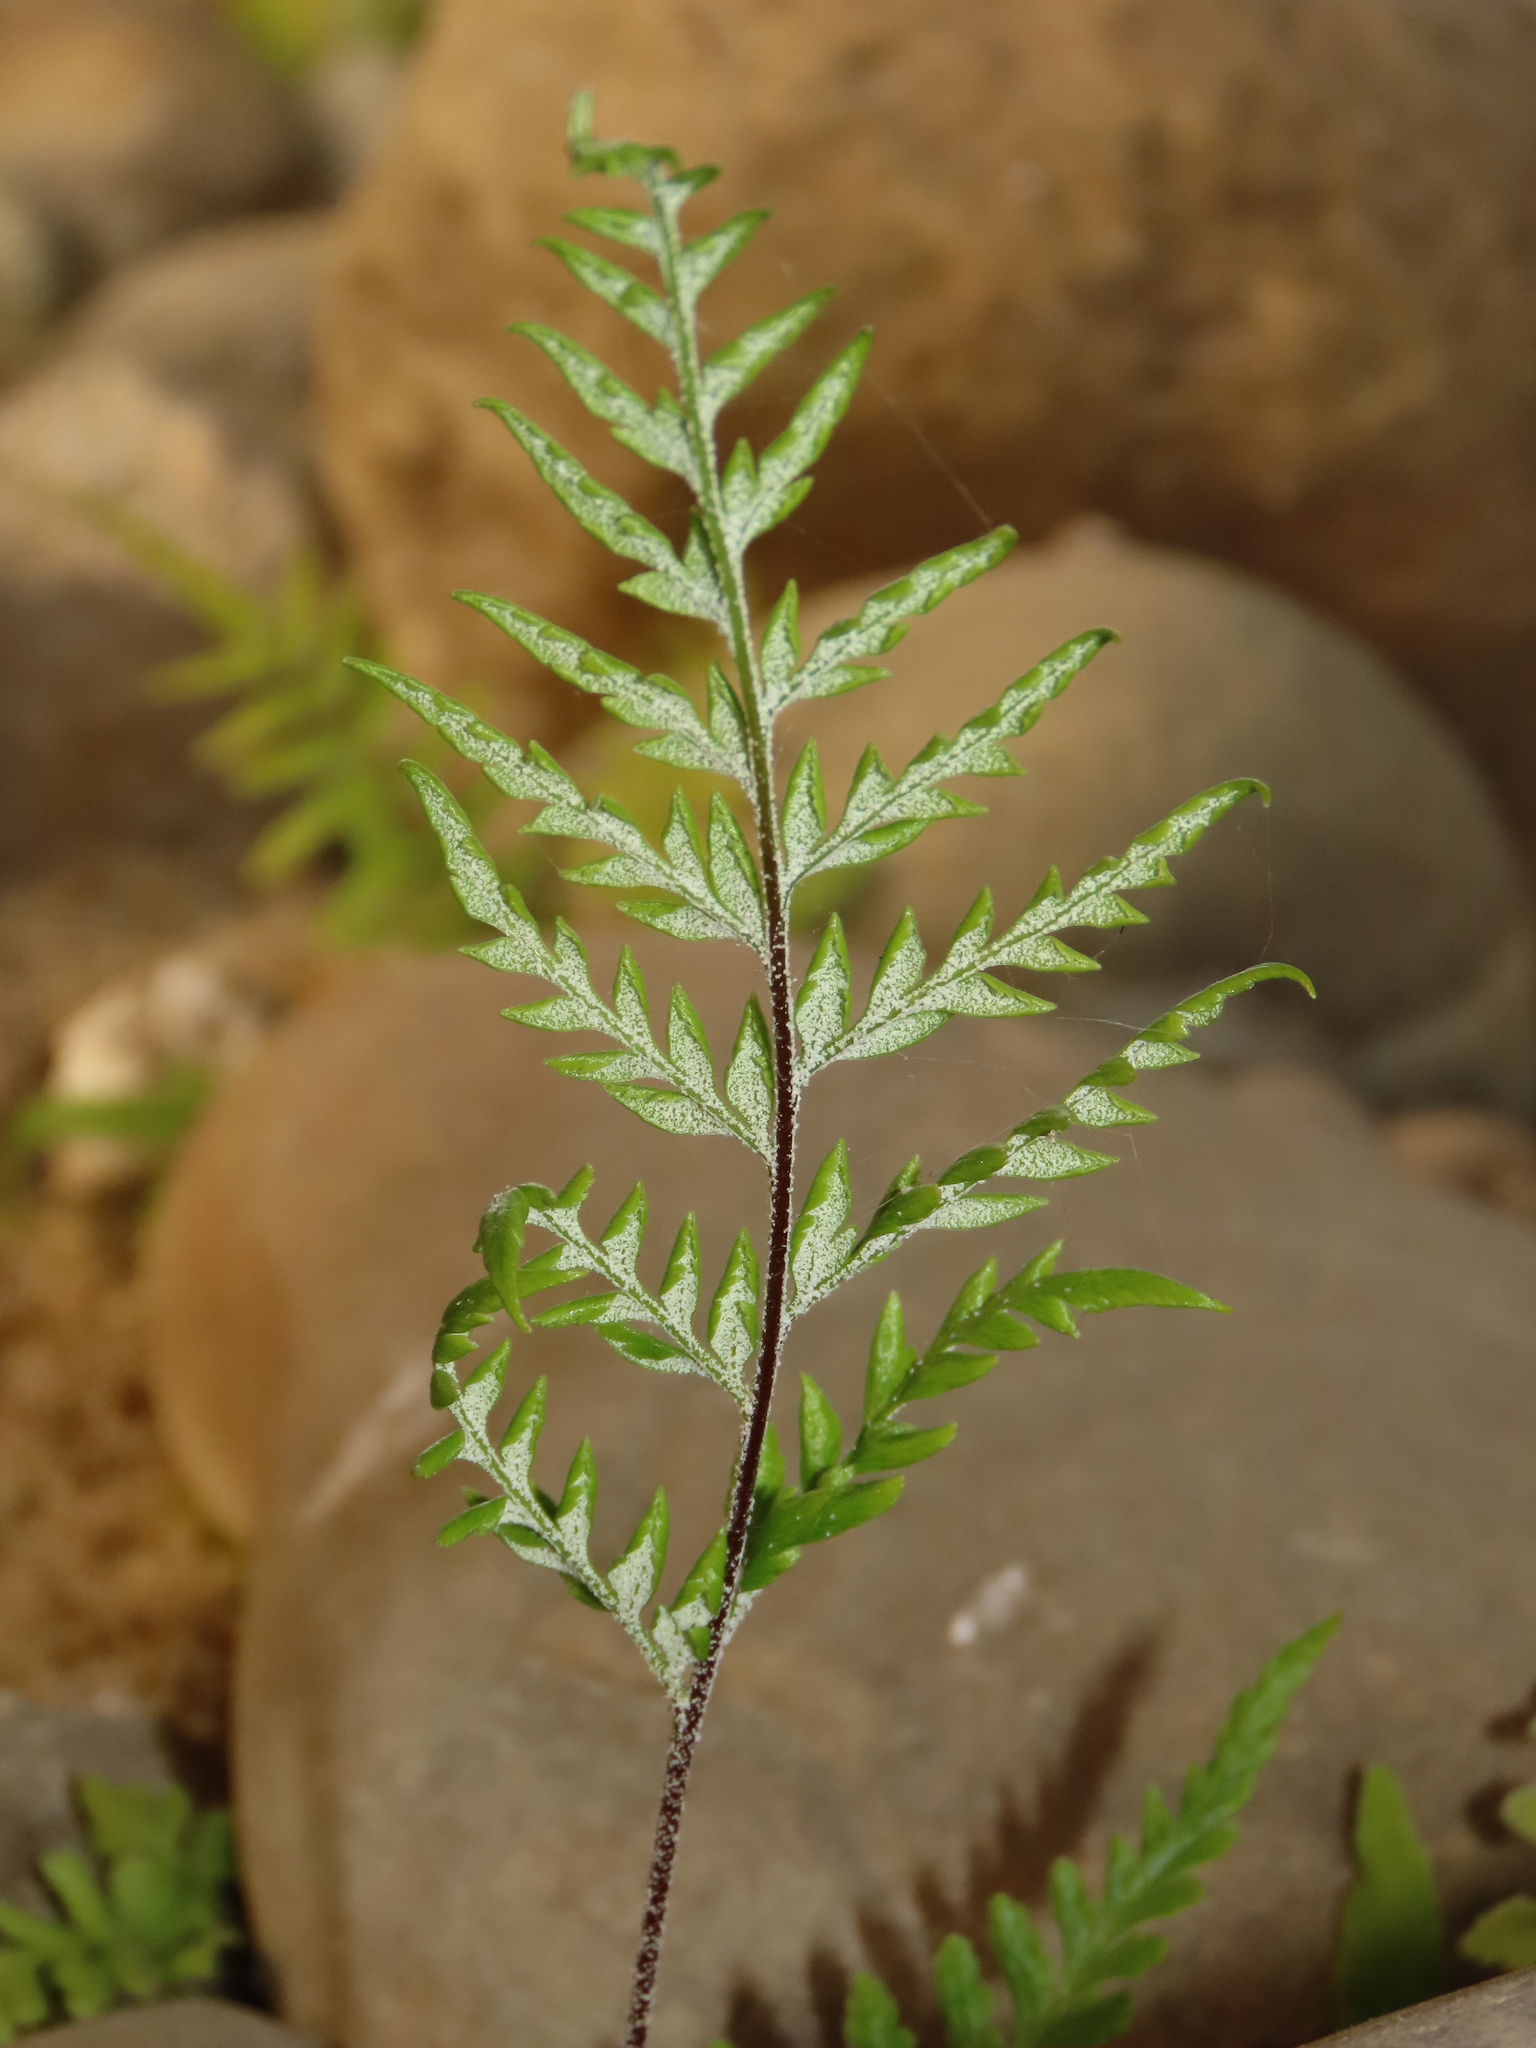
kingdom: Plantae
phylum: Tracheophyta
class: Polypodiopsida
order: Polypodiales
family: Pteridaceae
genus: Pityrogramma
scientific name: Pityrogramma calomelanos
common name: Dixie silverback fern
